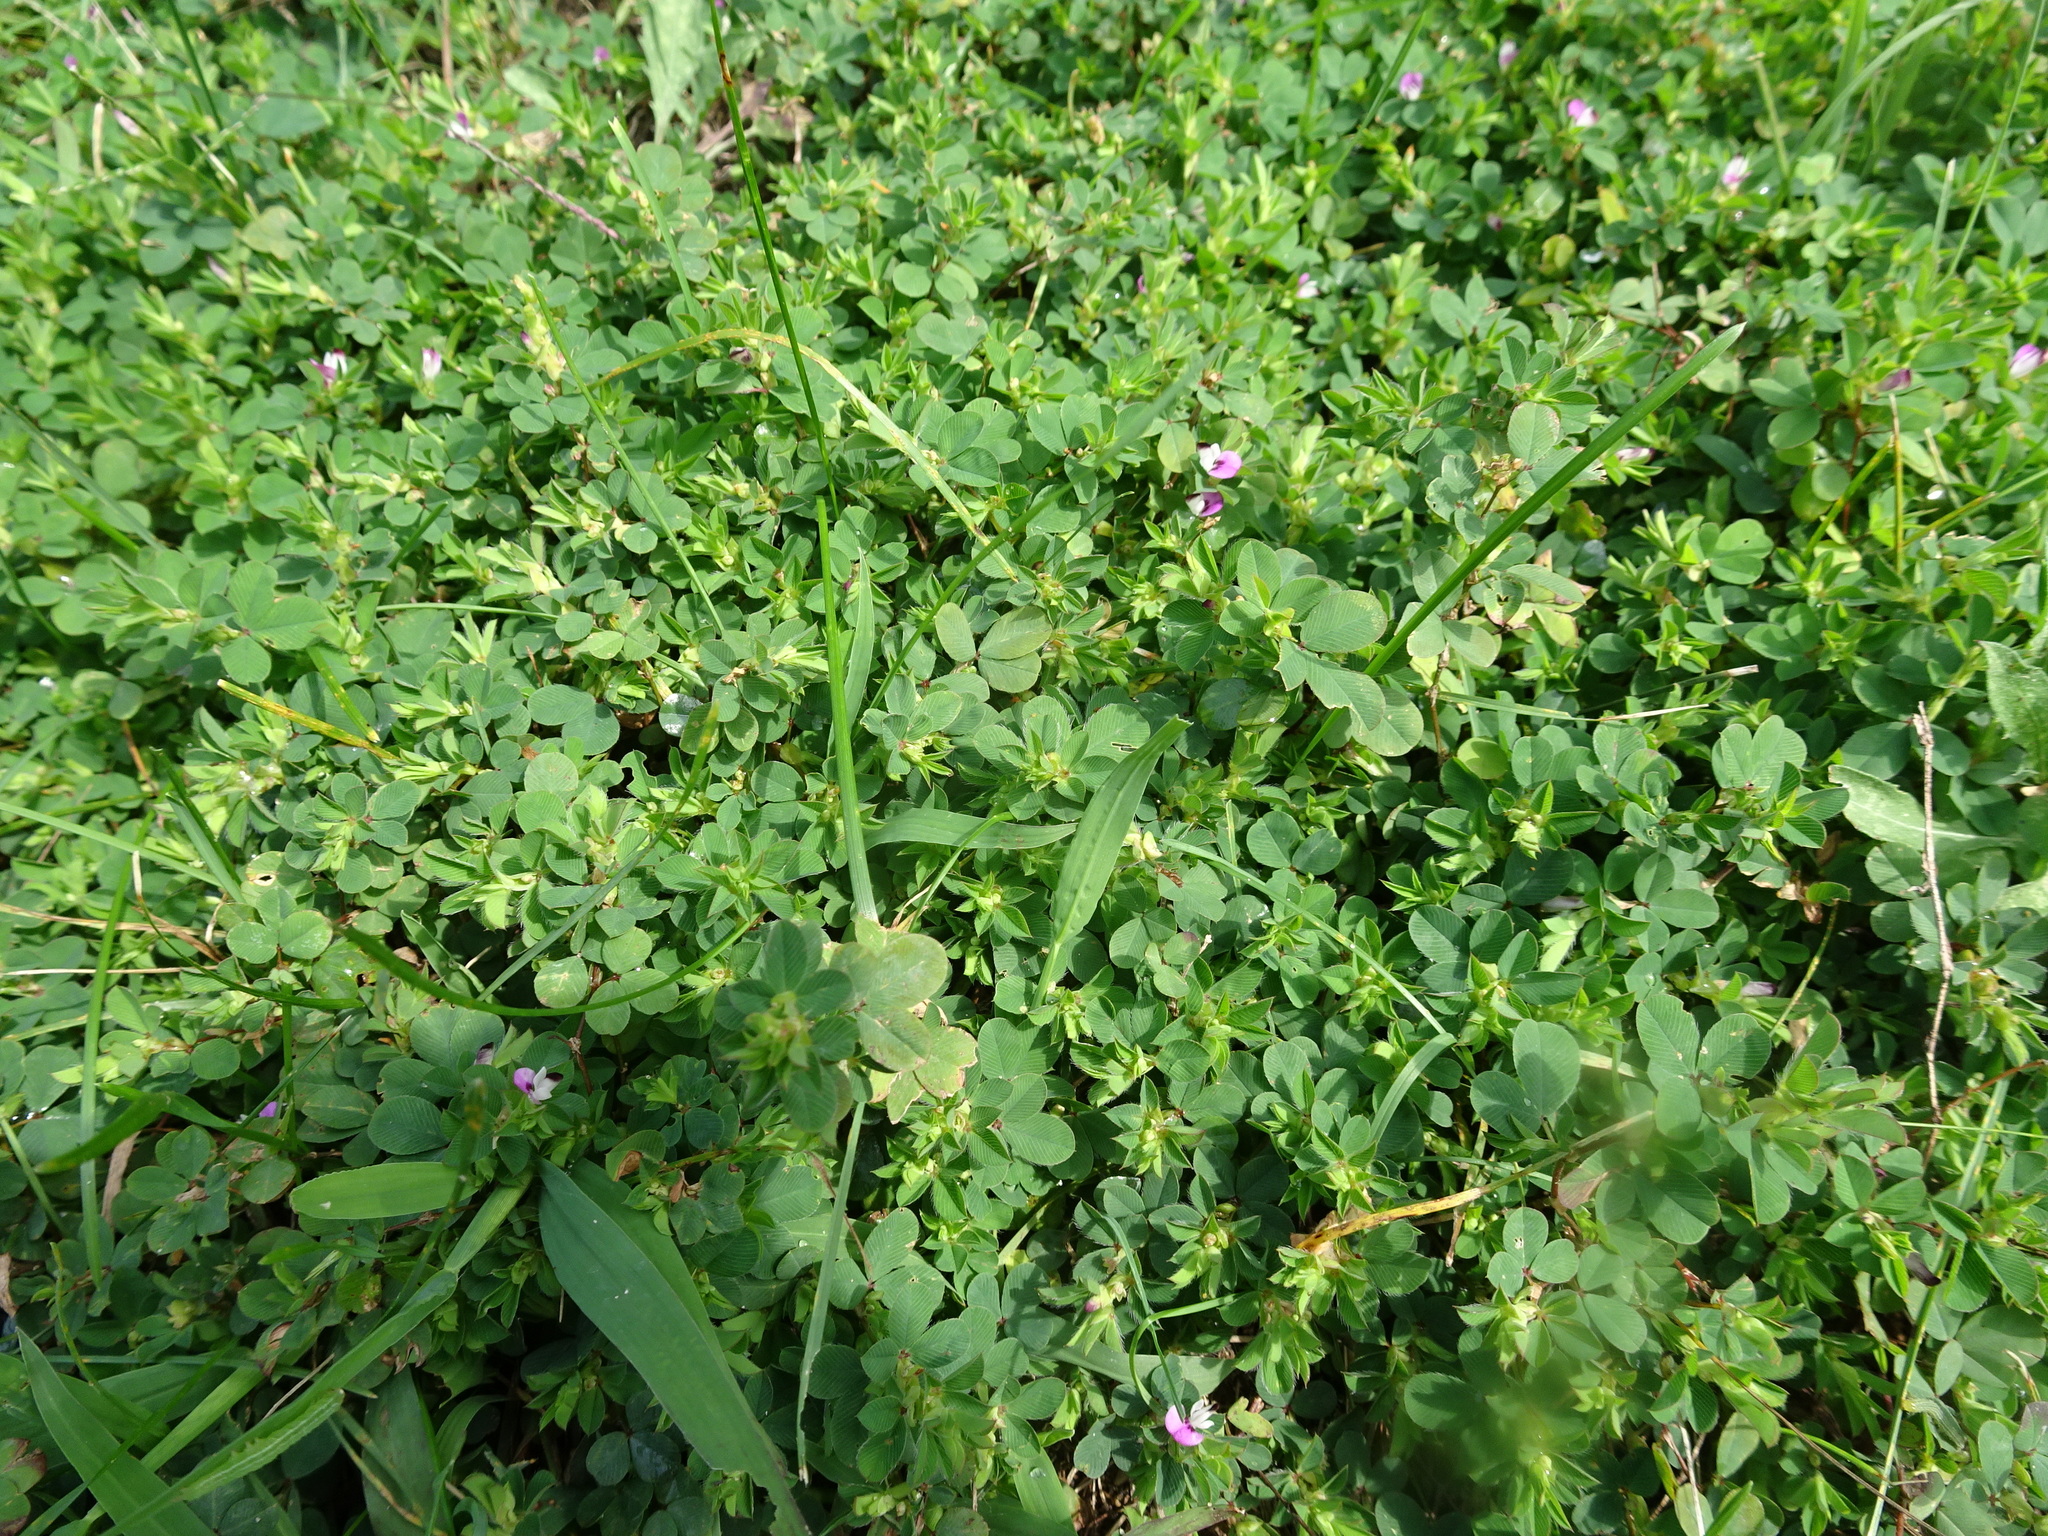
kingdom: Plantae
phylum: Tracheophyta
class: Magnoliopsida
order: Fabales
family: Fabaceae
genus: Kummerowia
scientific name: Kummerowia stipulacea
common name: Korean clover
